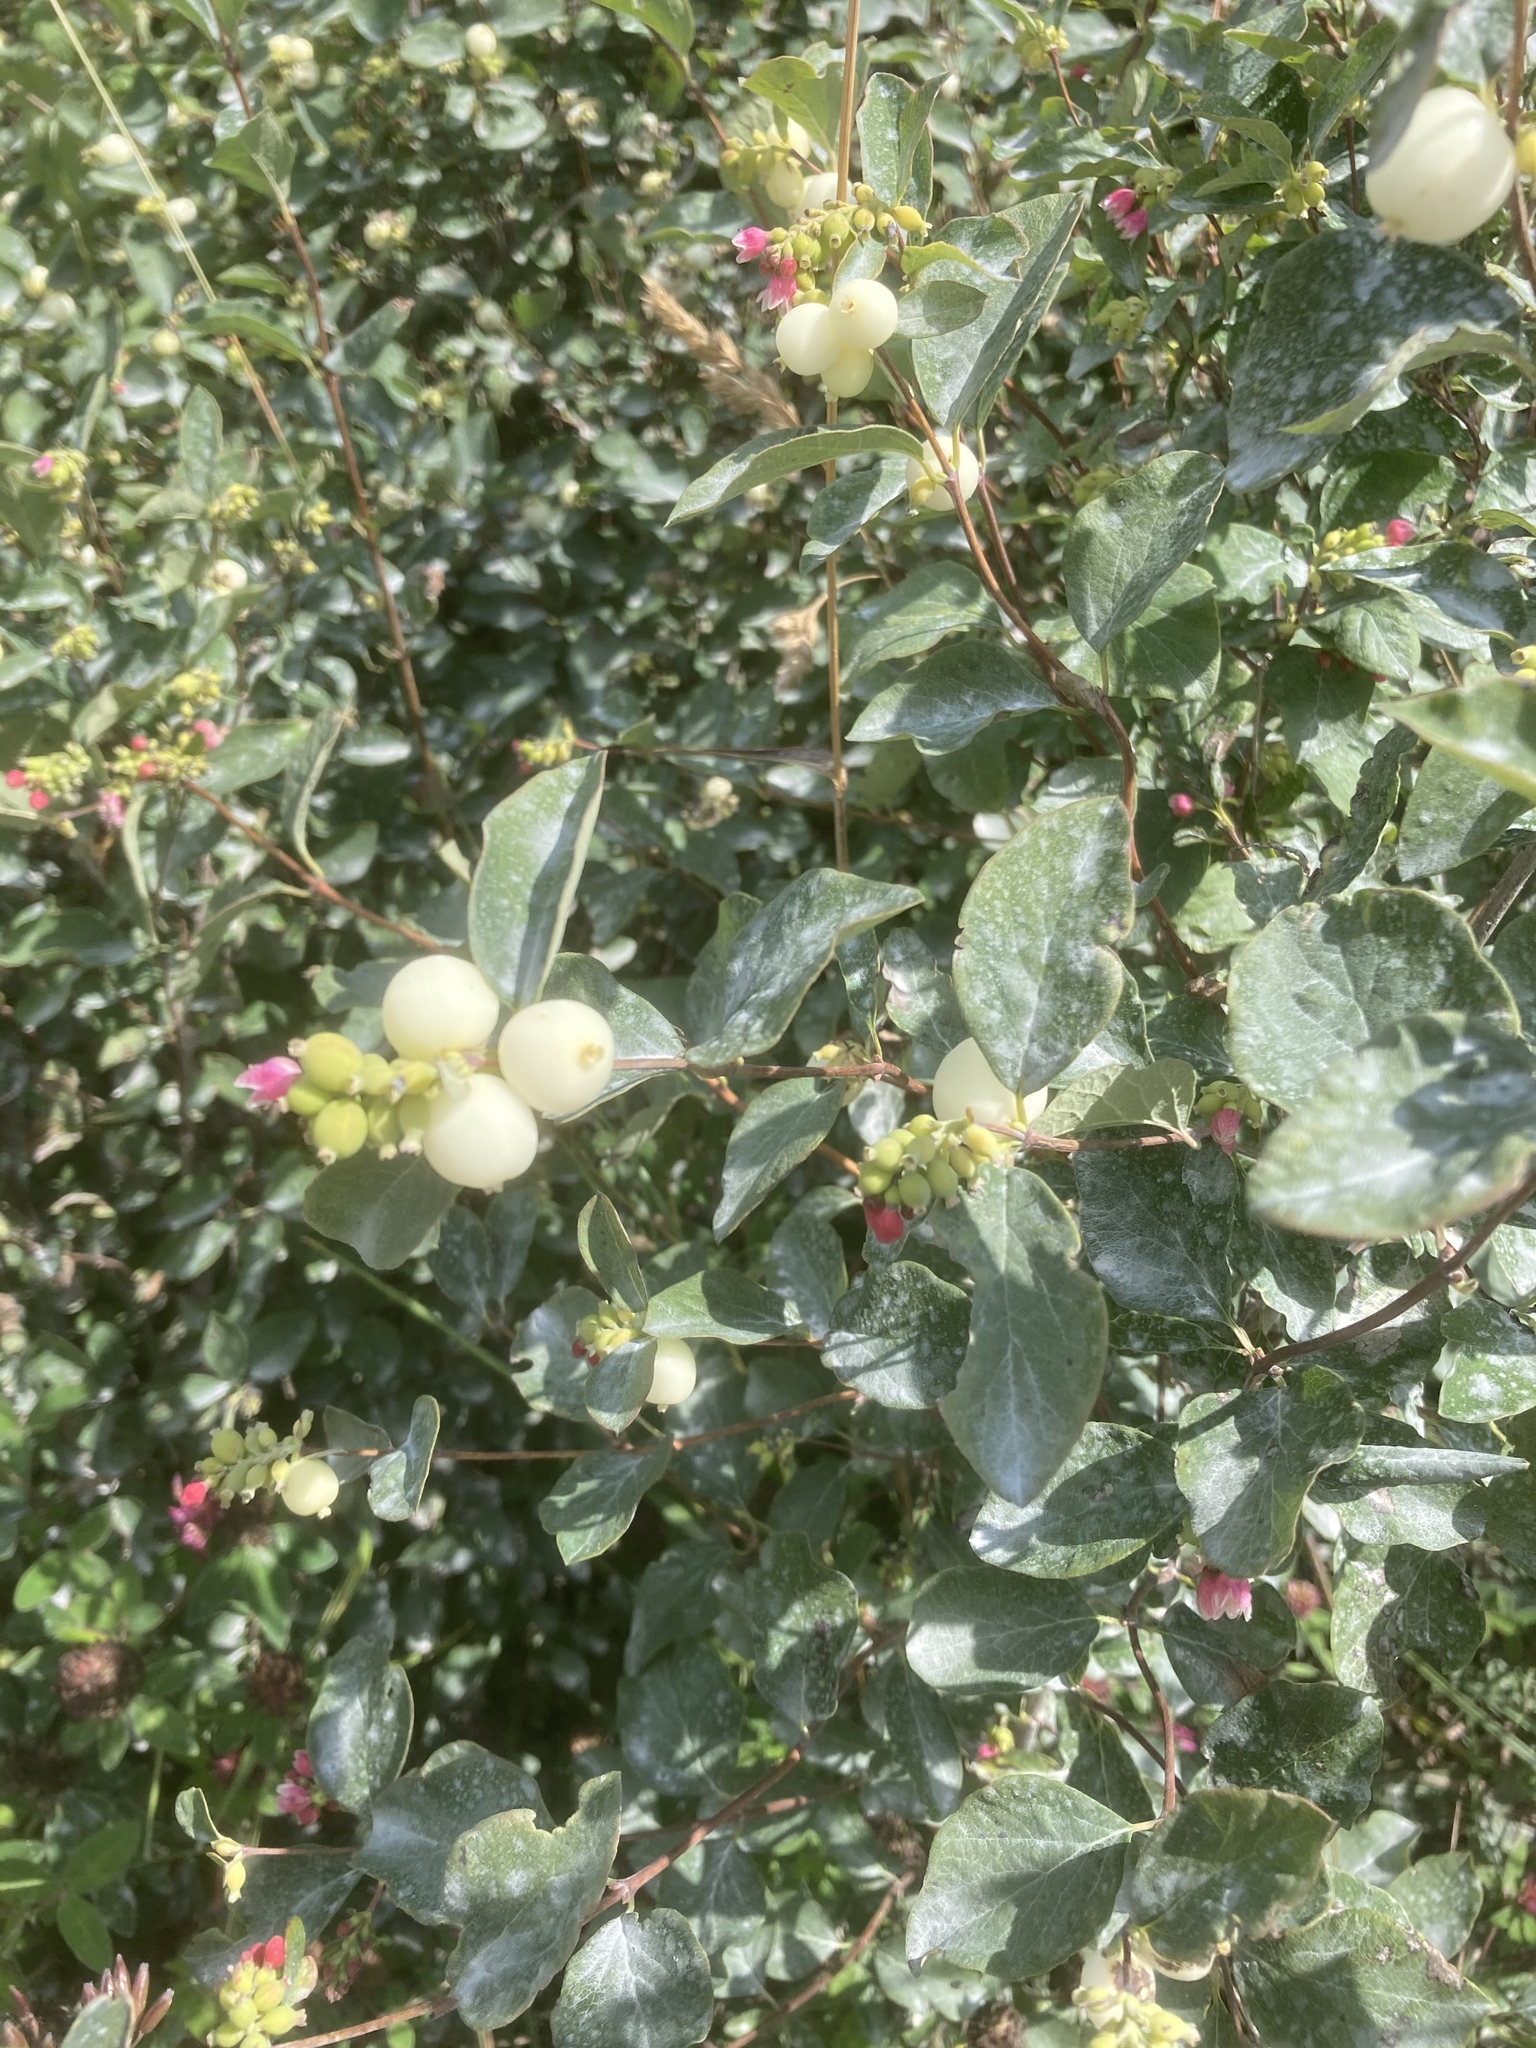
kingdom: Plantae
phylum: Tracheophyta
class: Magnoliopsida
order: Dipsacales
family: Caprifoliaceae
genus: Symphoricarpos
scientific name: Symphoricarpos albus
